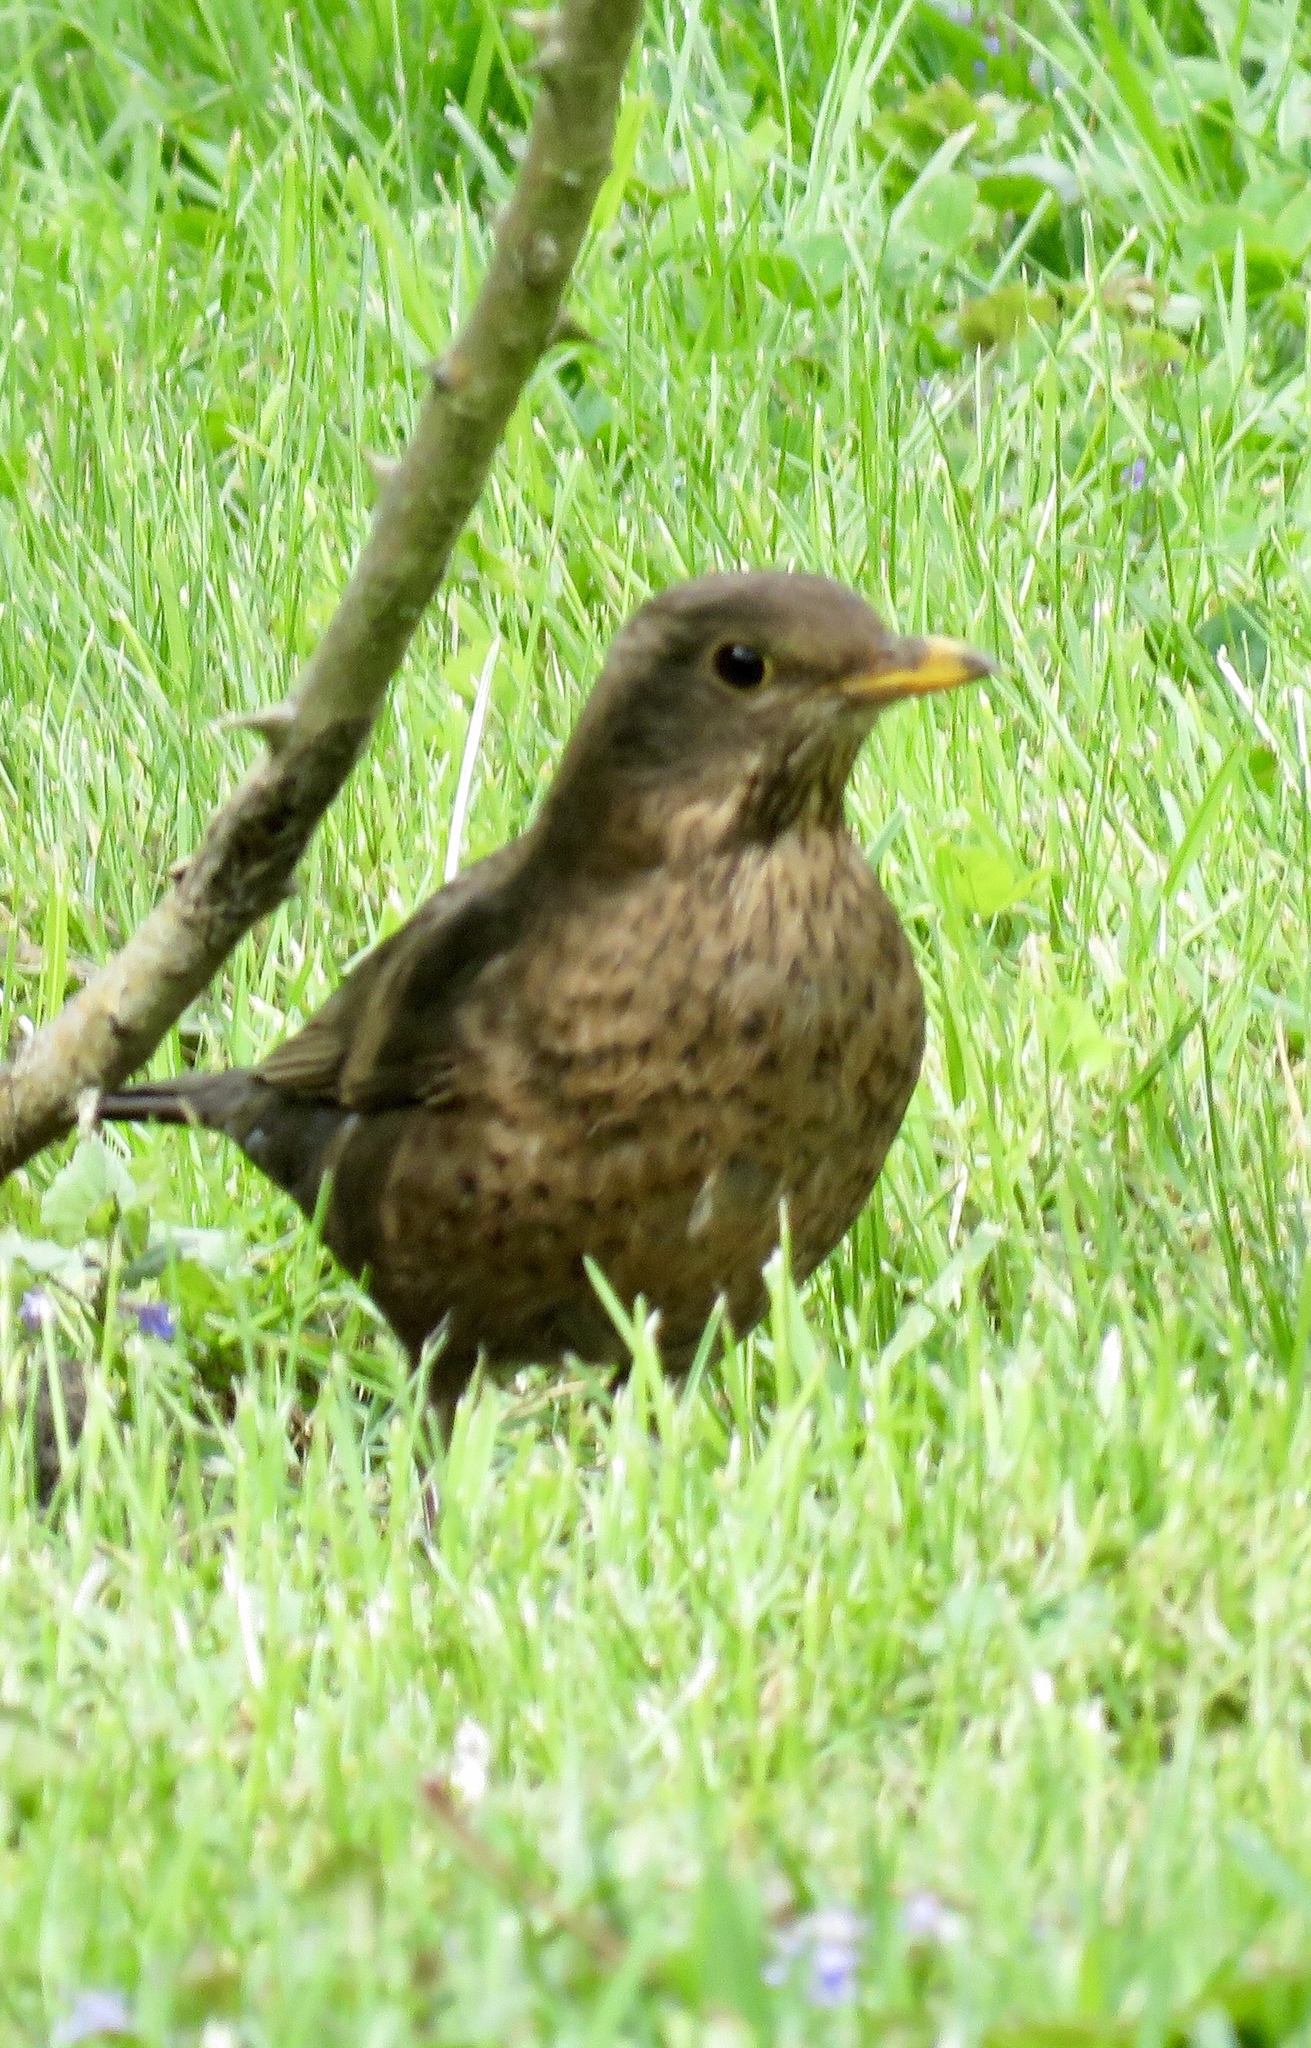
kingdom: Animalia
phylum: Chordata
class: Aves
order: Passeriformes
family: Turdidae
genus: Turdus
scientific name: Turdus merula
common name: Common blackbird
